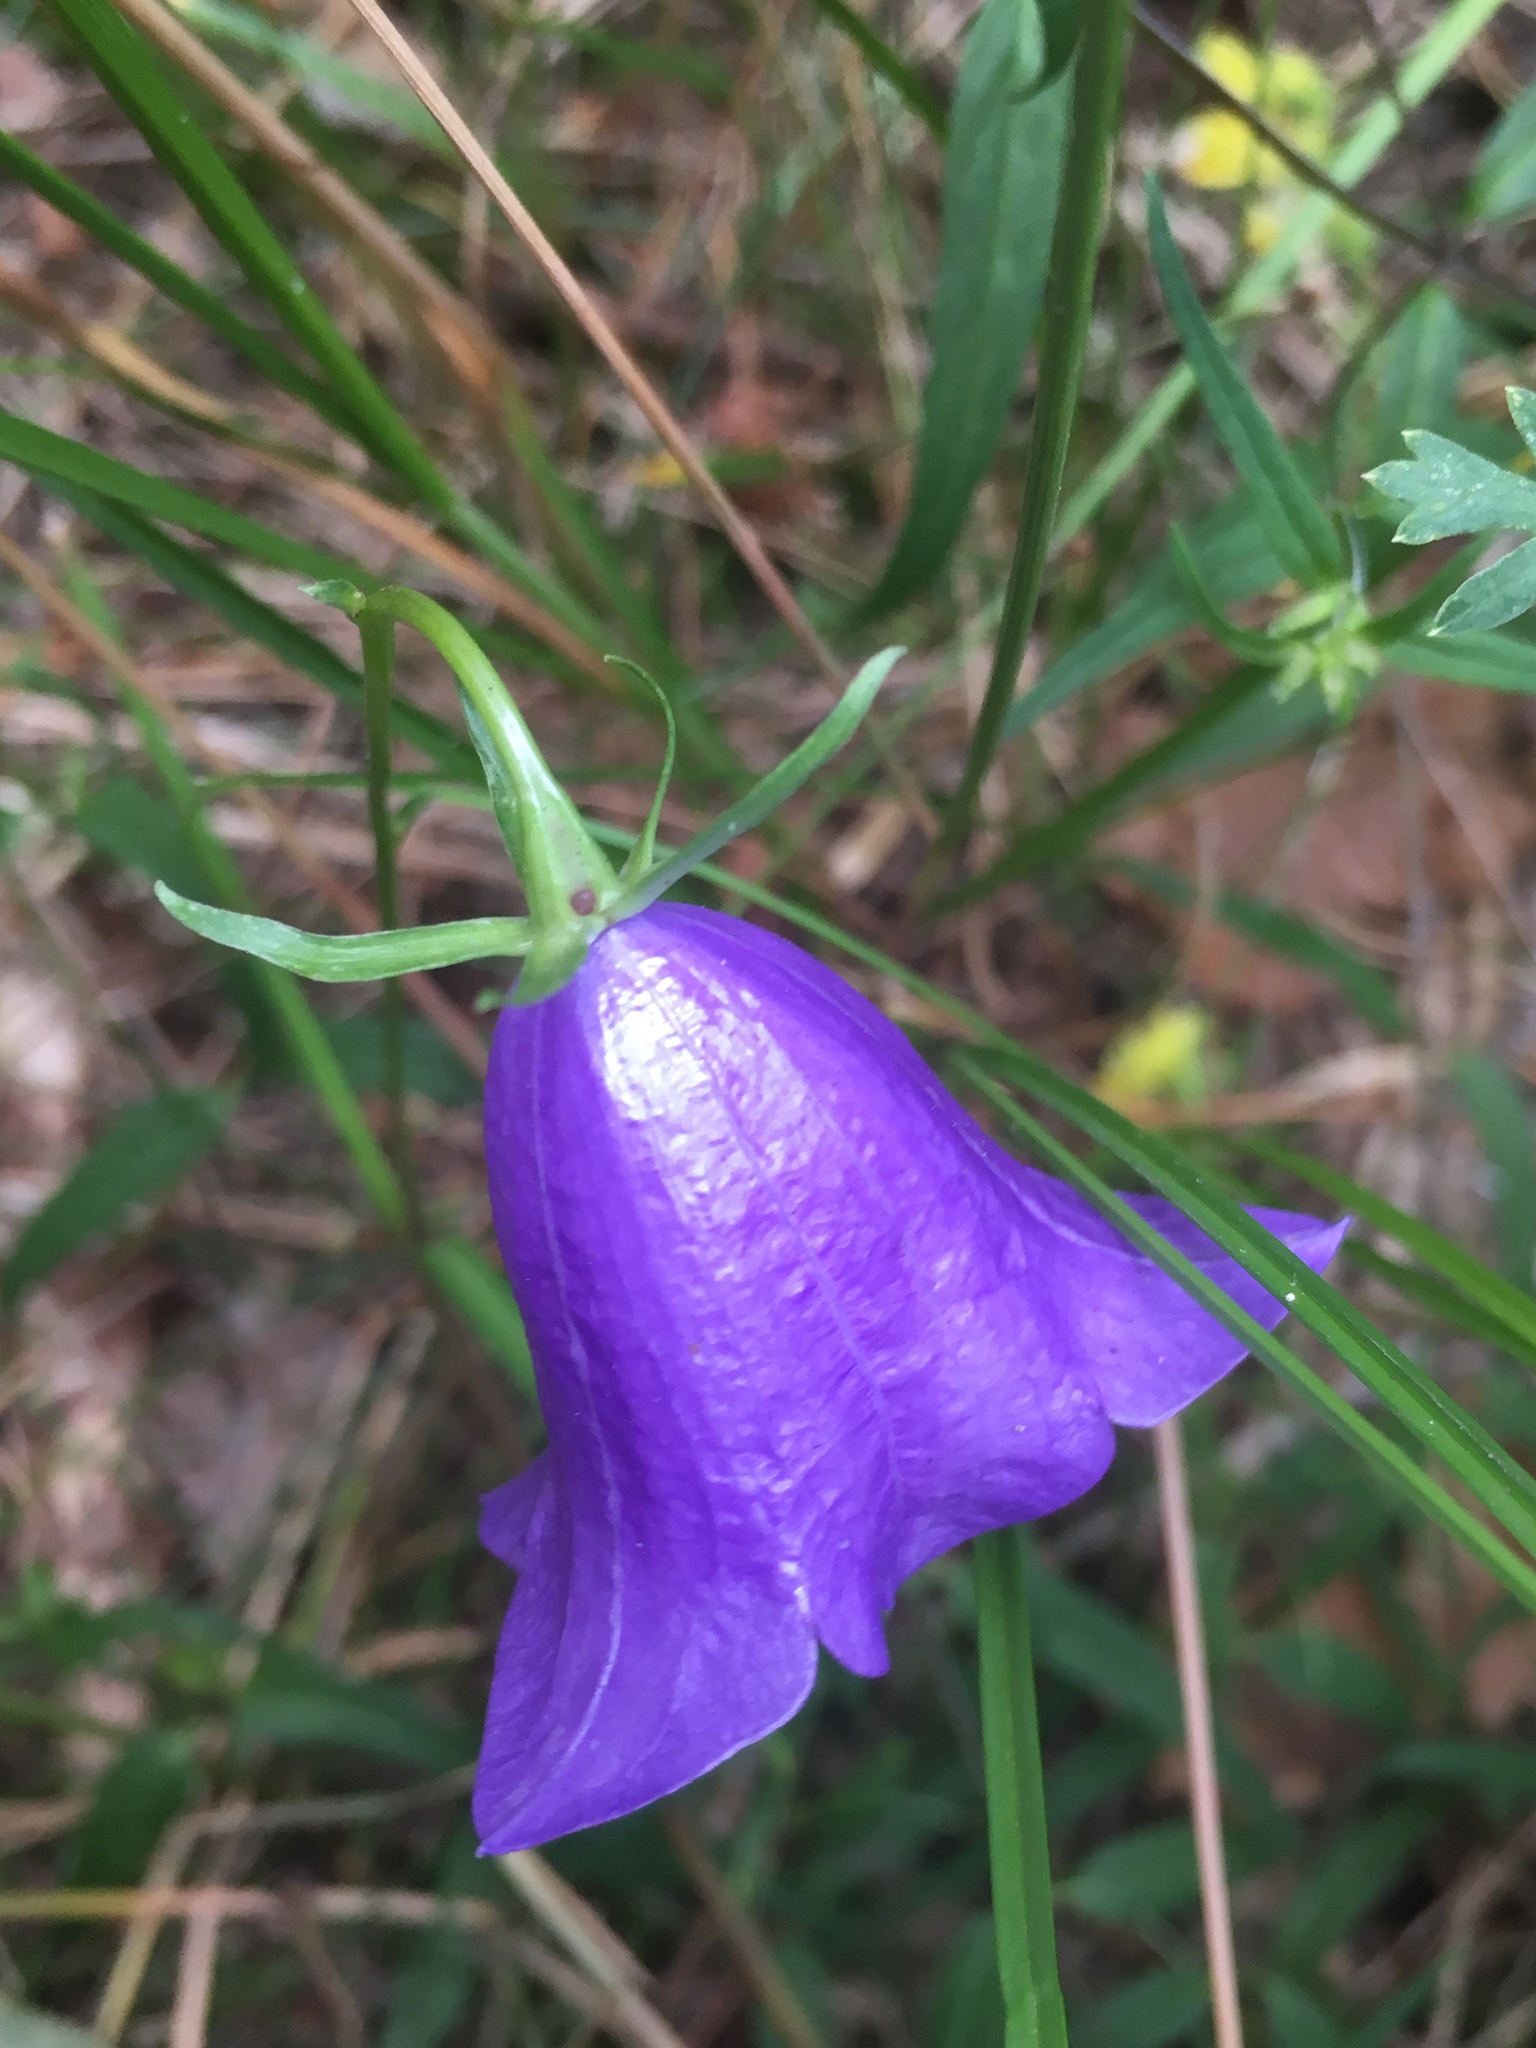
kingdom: Plantae
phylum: Tracheophyta
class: Magnoliopsida
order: Asterales
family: Campanulaceae
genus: Campanula
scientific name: Campanula persicifolia
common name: Peach-leaved bellflower
